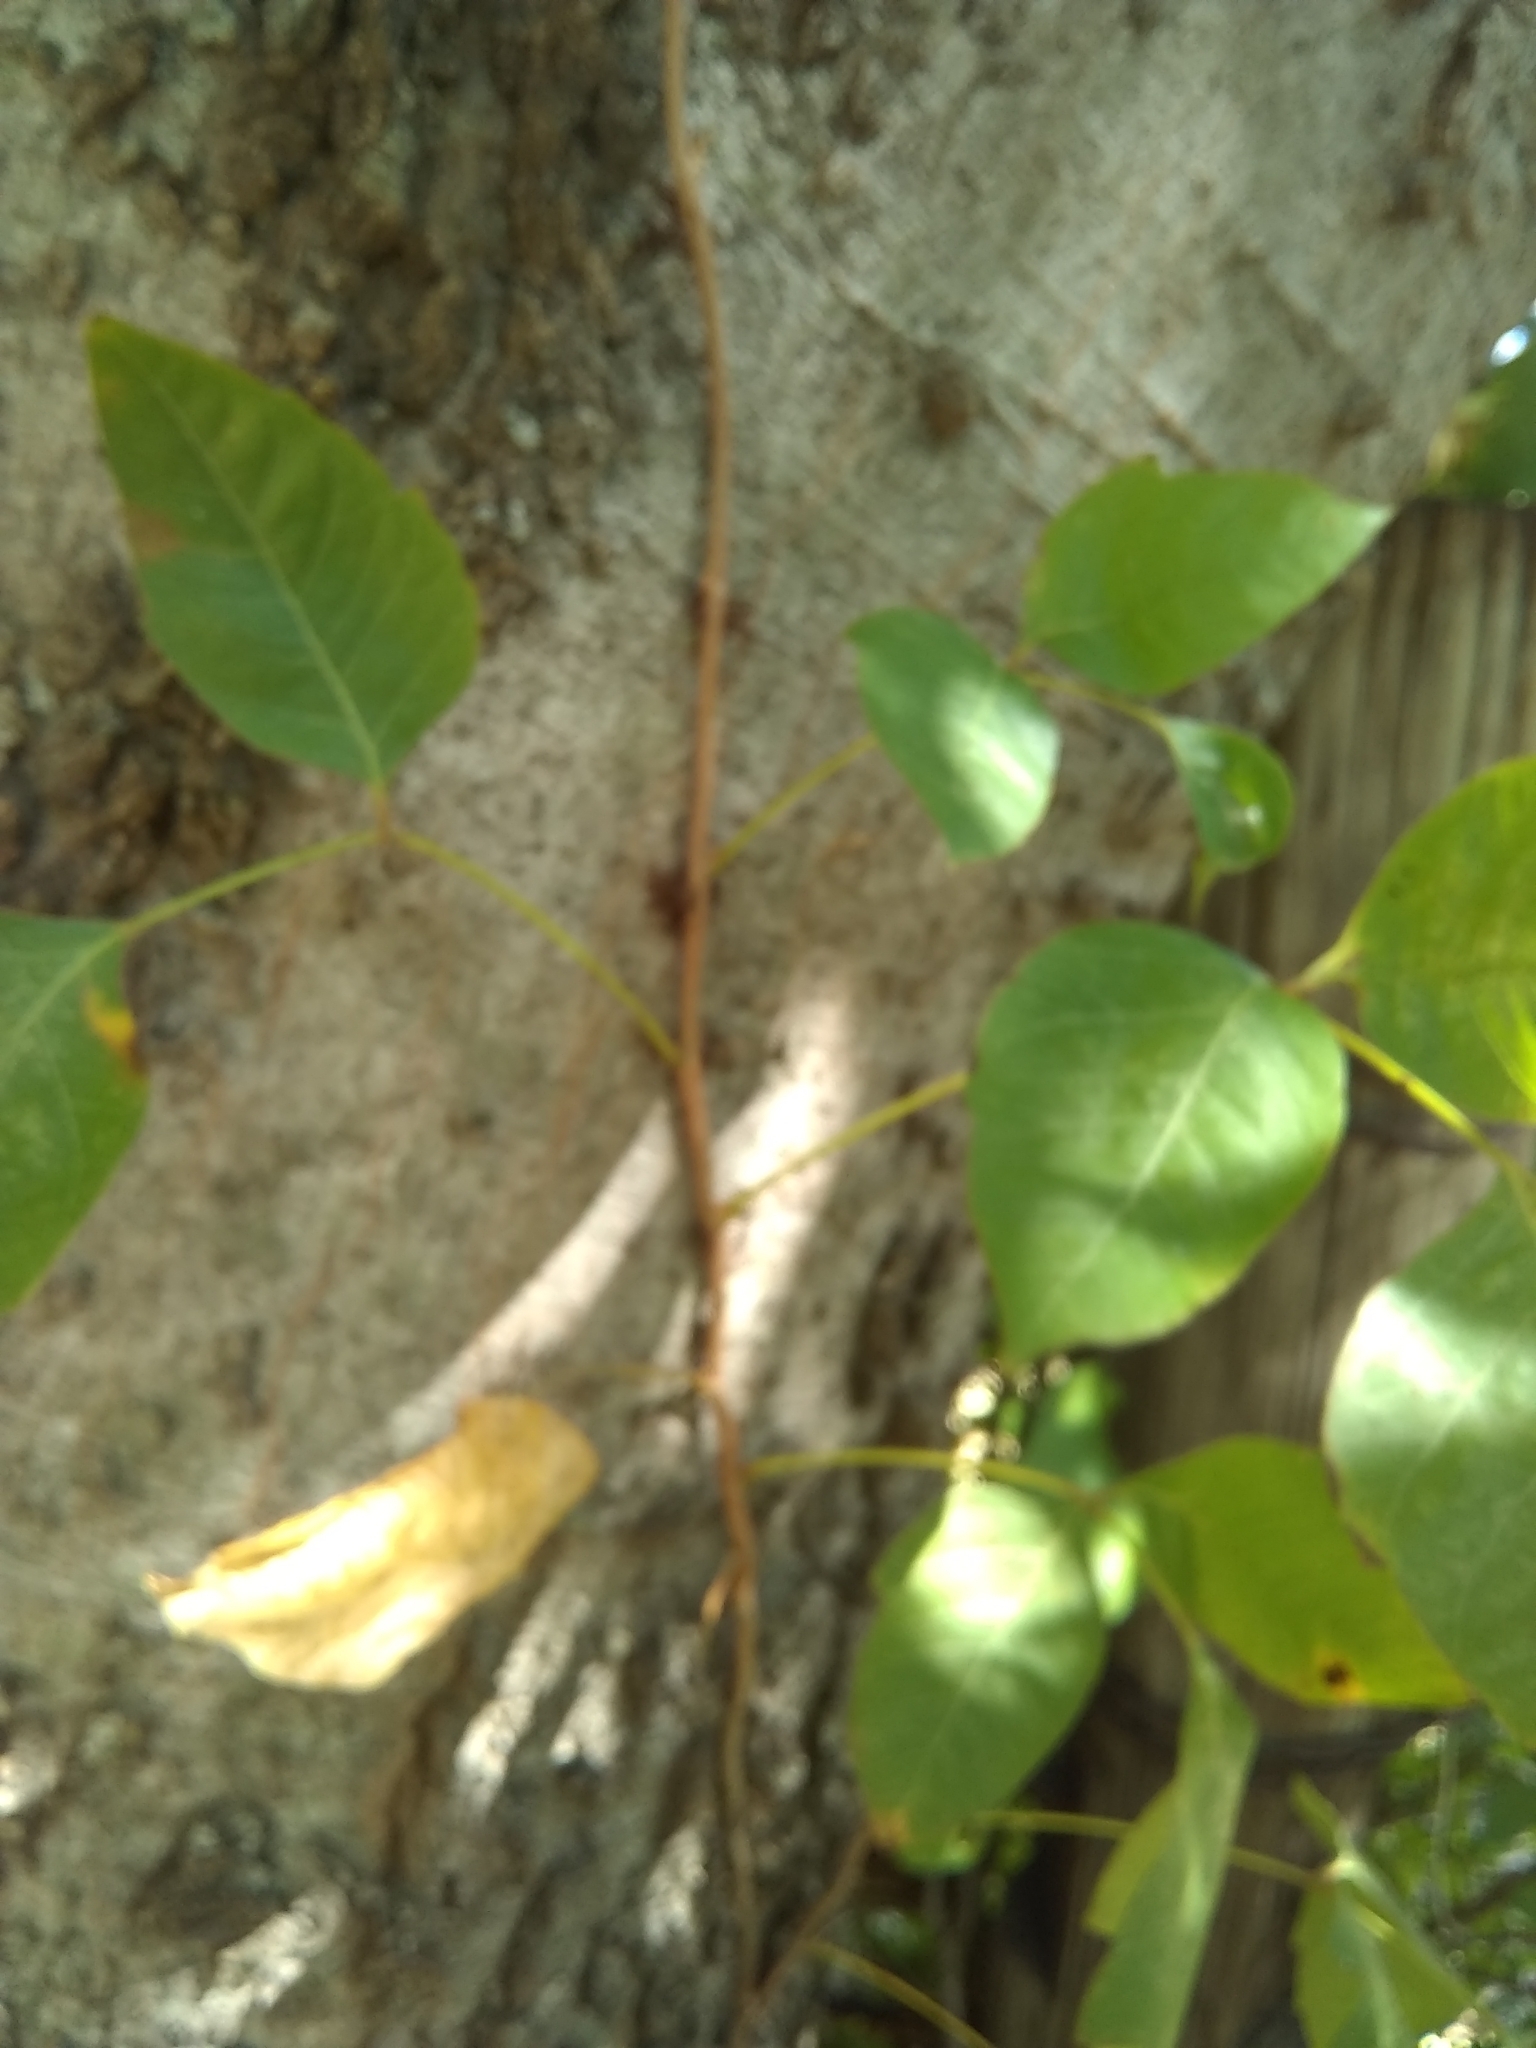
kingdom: Plantae
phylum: Tracheophyta
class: Magnoliopsida
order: Sapindales
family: Anacardiaceae
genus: Toxicodendron
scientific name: Toxicodendron radicans
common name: Poison ivy
